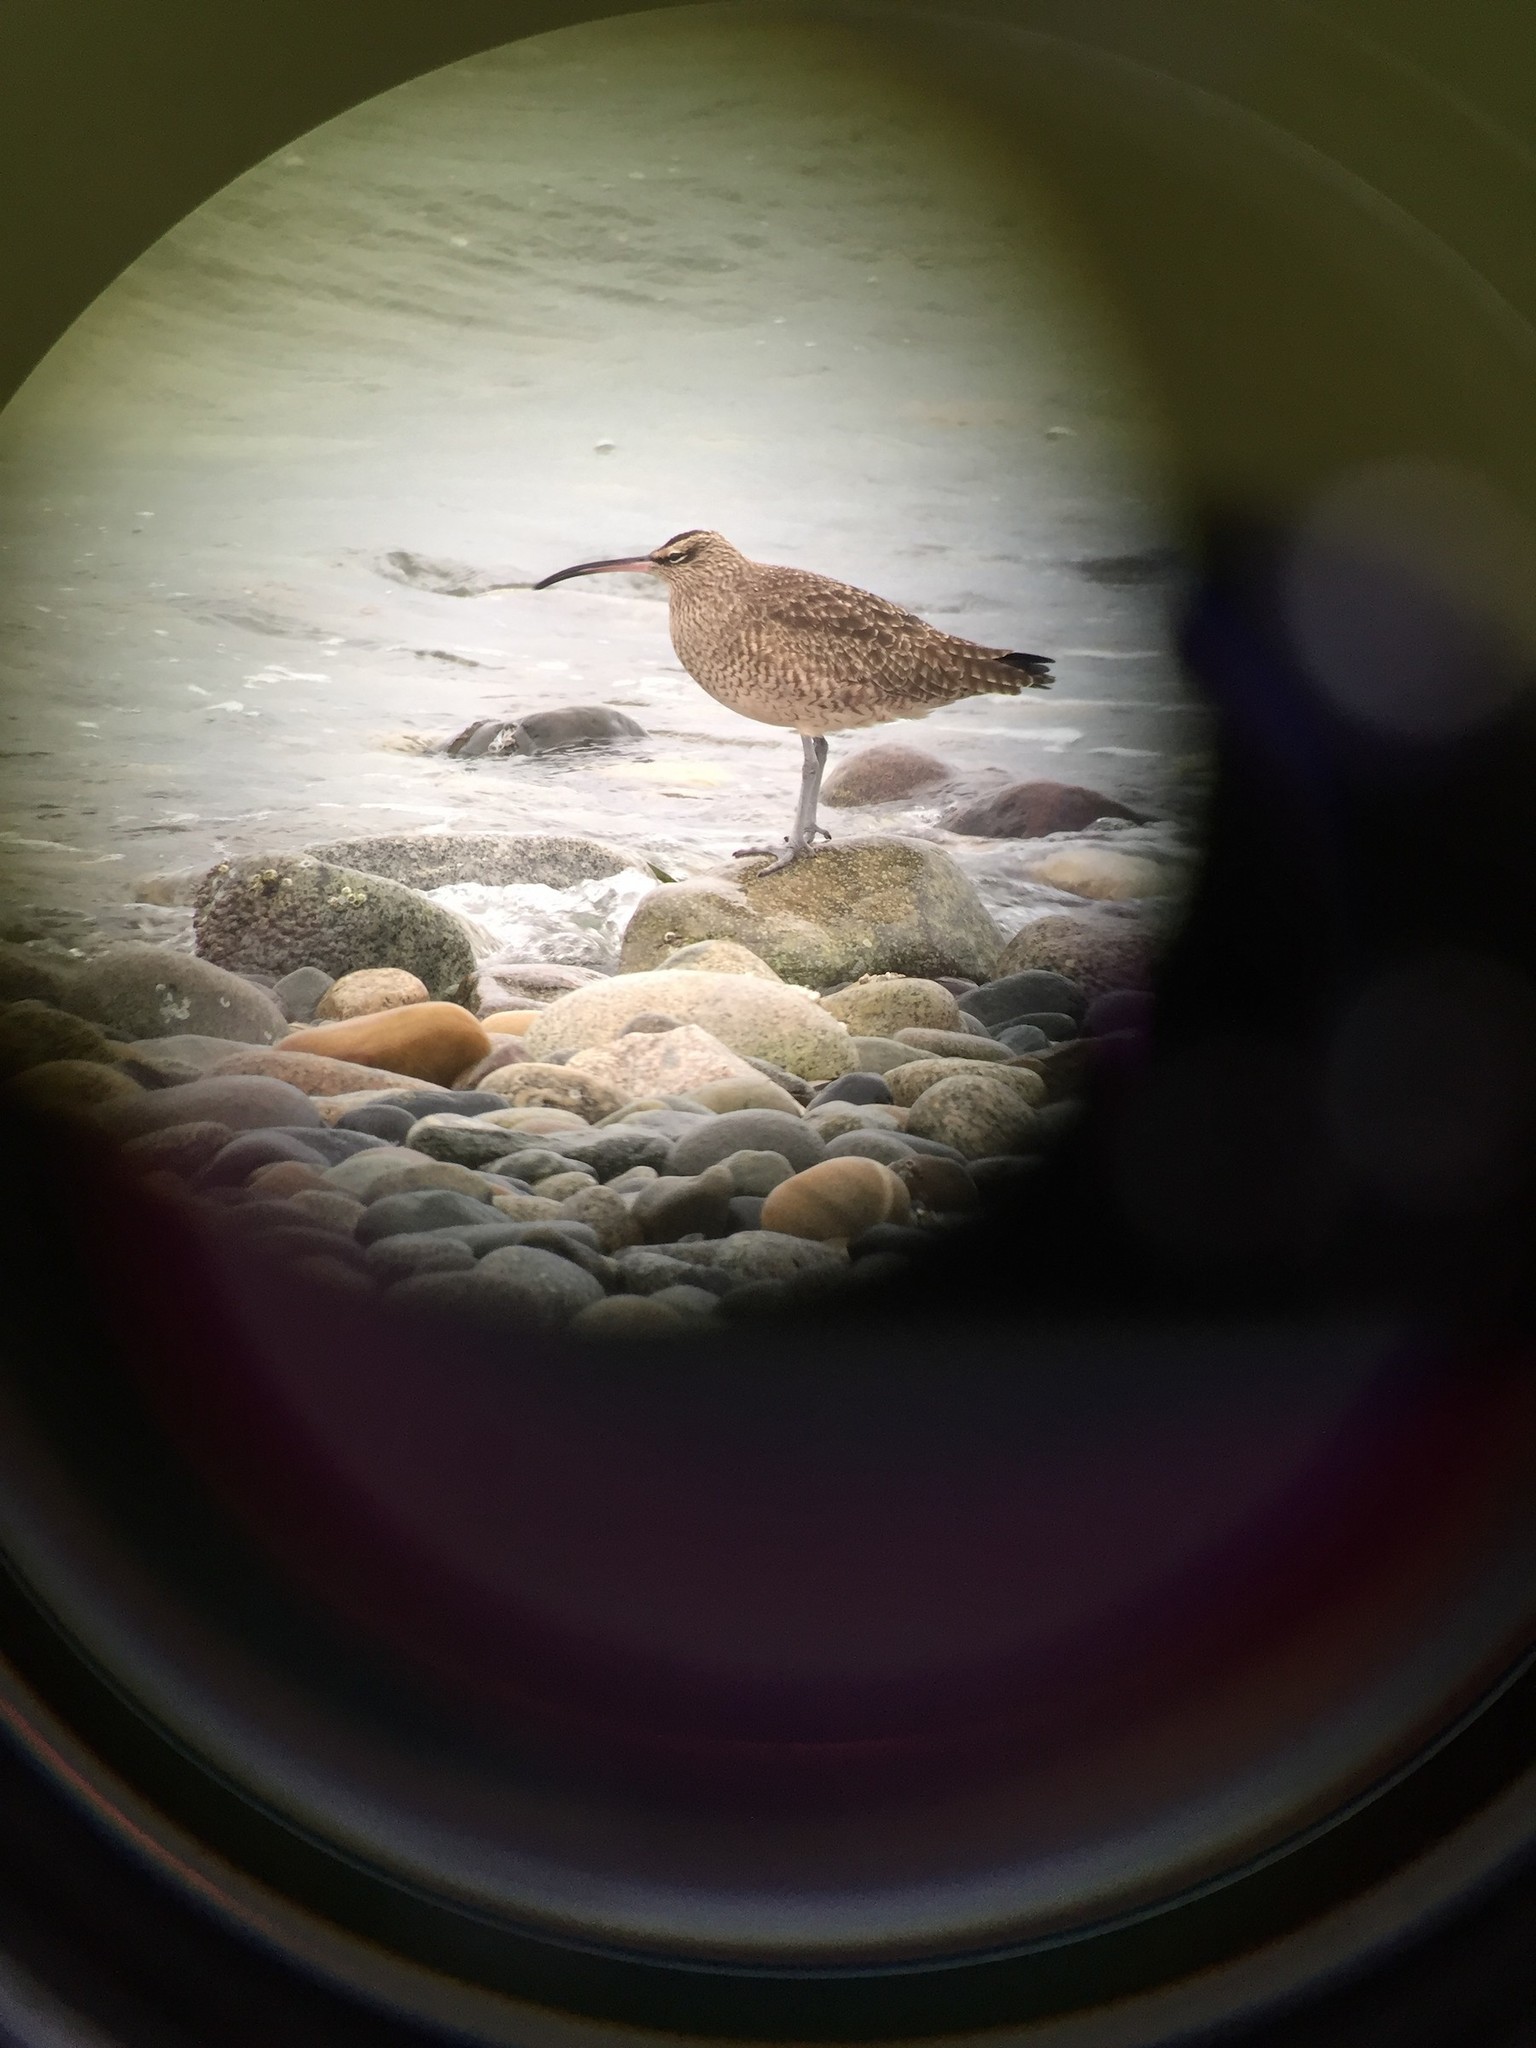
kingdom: Animalia
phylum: Chordata
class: Aves
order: Charadriiformes
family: Scolopacidae
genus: Numenius
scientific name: Numenius phaeopus
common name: Whimbrel
